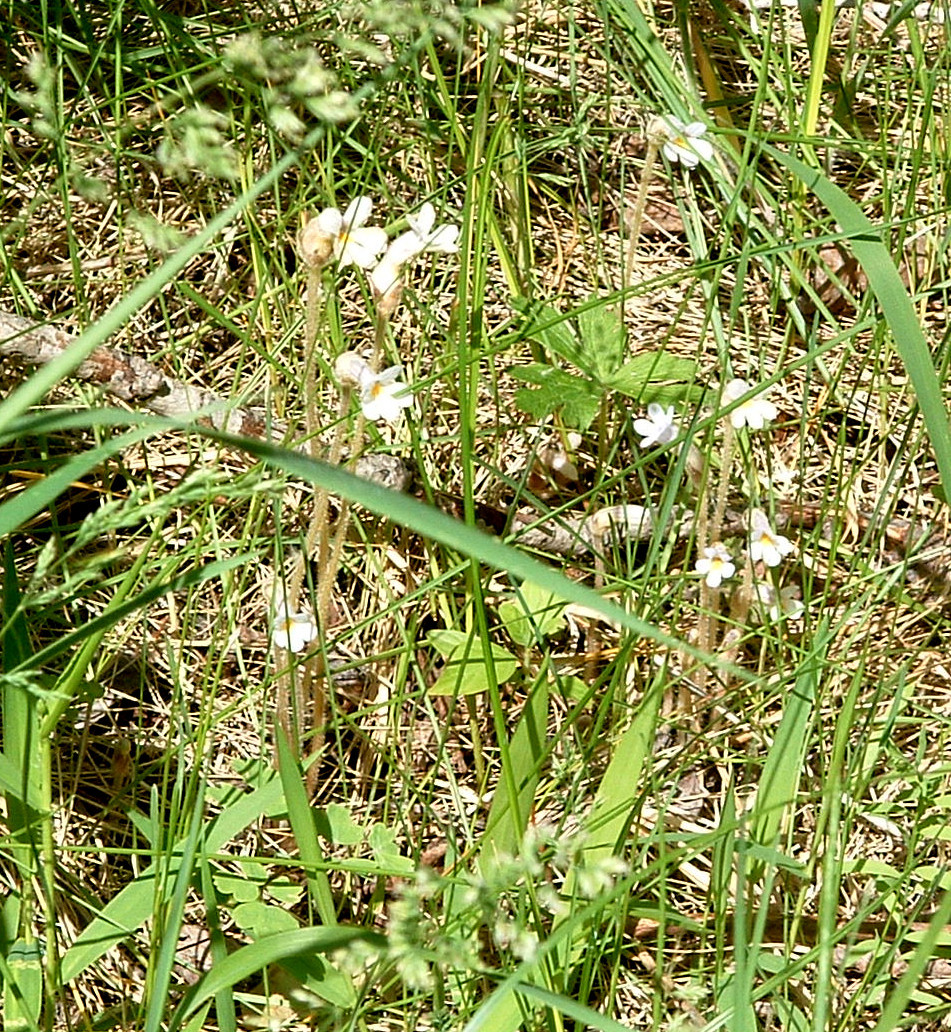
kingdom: Plantae
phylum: Tracheophyta
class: Magnoliopsida
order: Lamiales
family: Orobanchaceae
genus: Aphyllon
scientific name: Aphyllon uniflorum
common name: One-flowered broomrape
